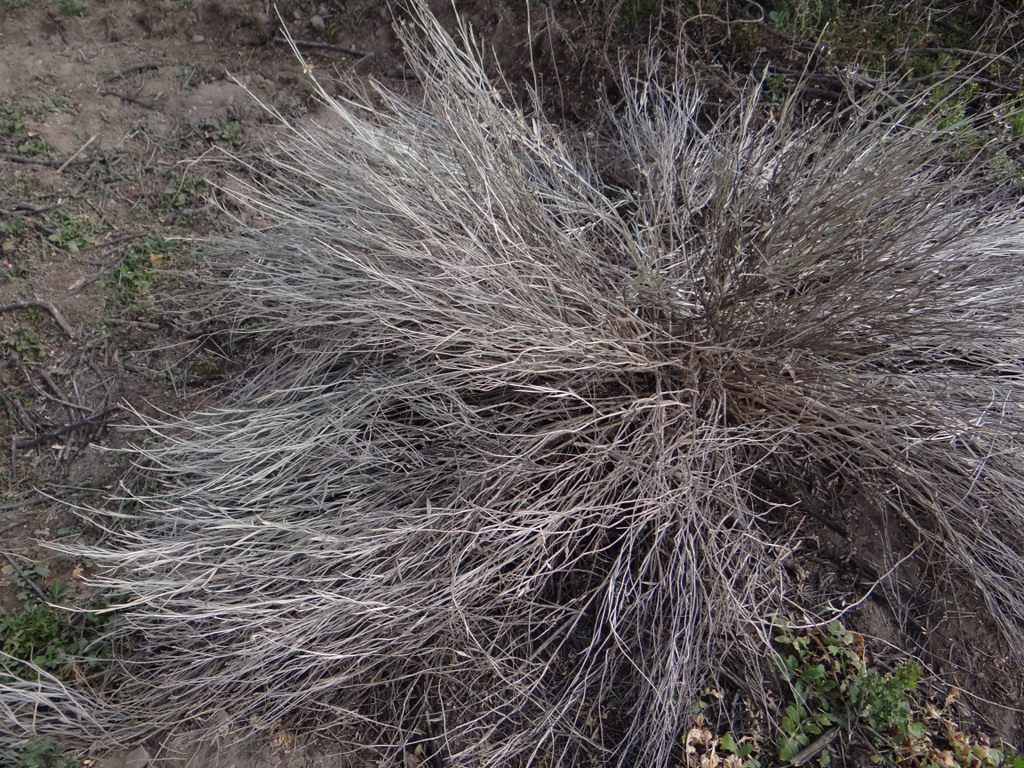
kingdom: Plantae
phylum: Tracheophyta
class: Magnoliopsida
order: Asterales
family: Asteraceae
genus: Hyalis
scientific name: Hyalis argentea
